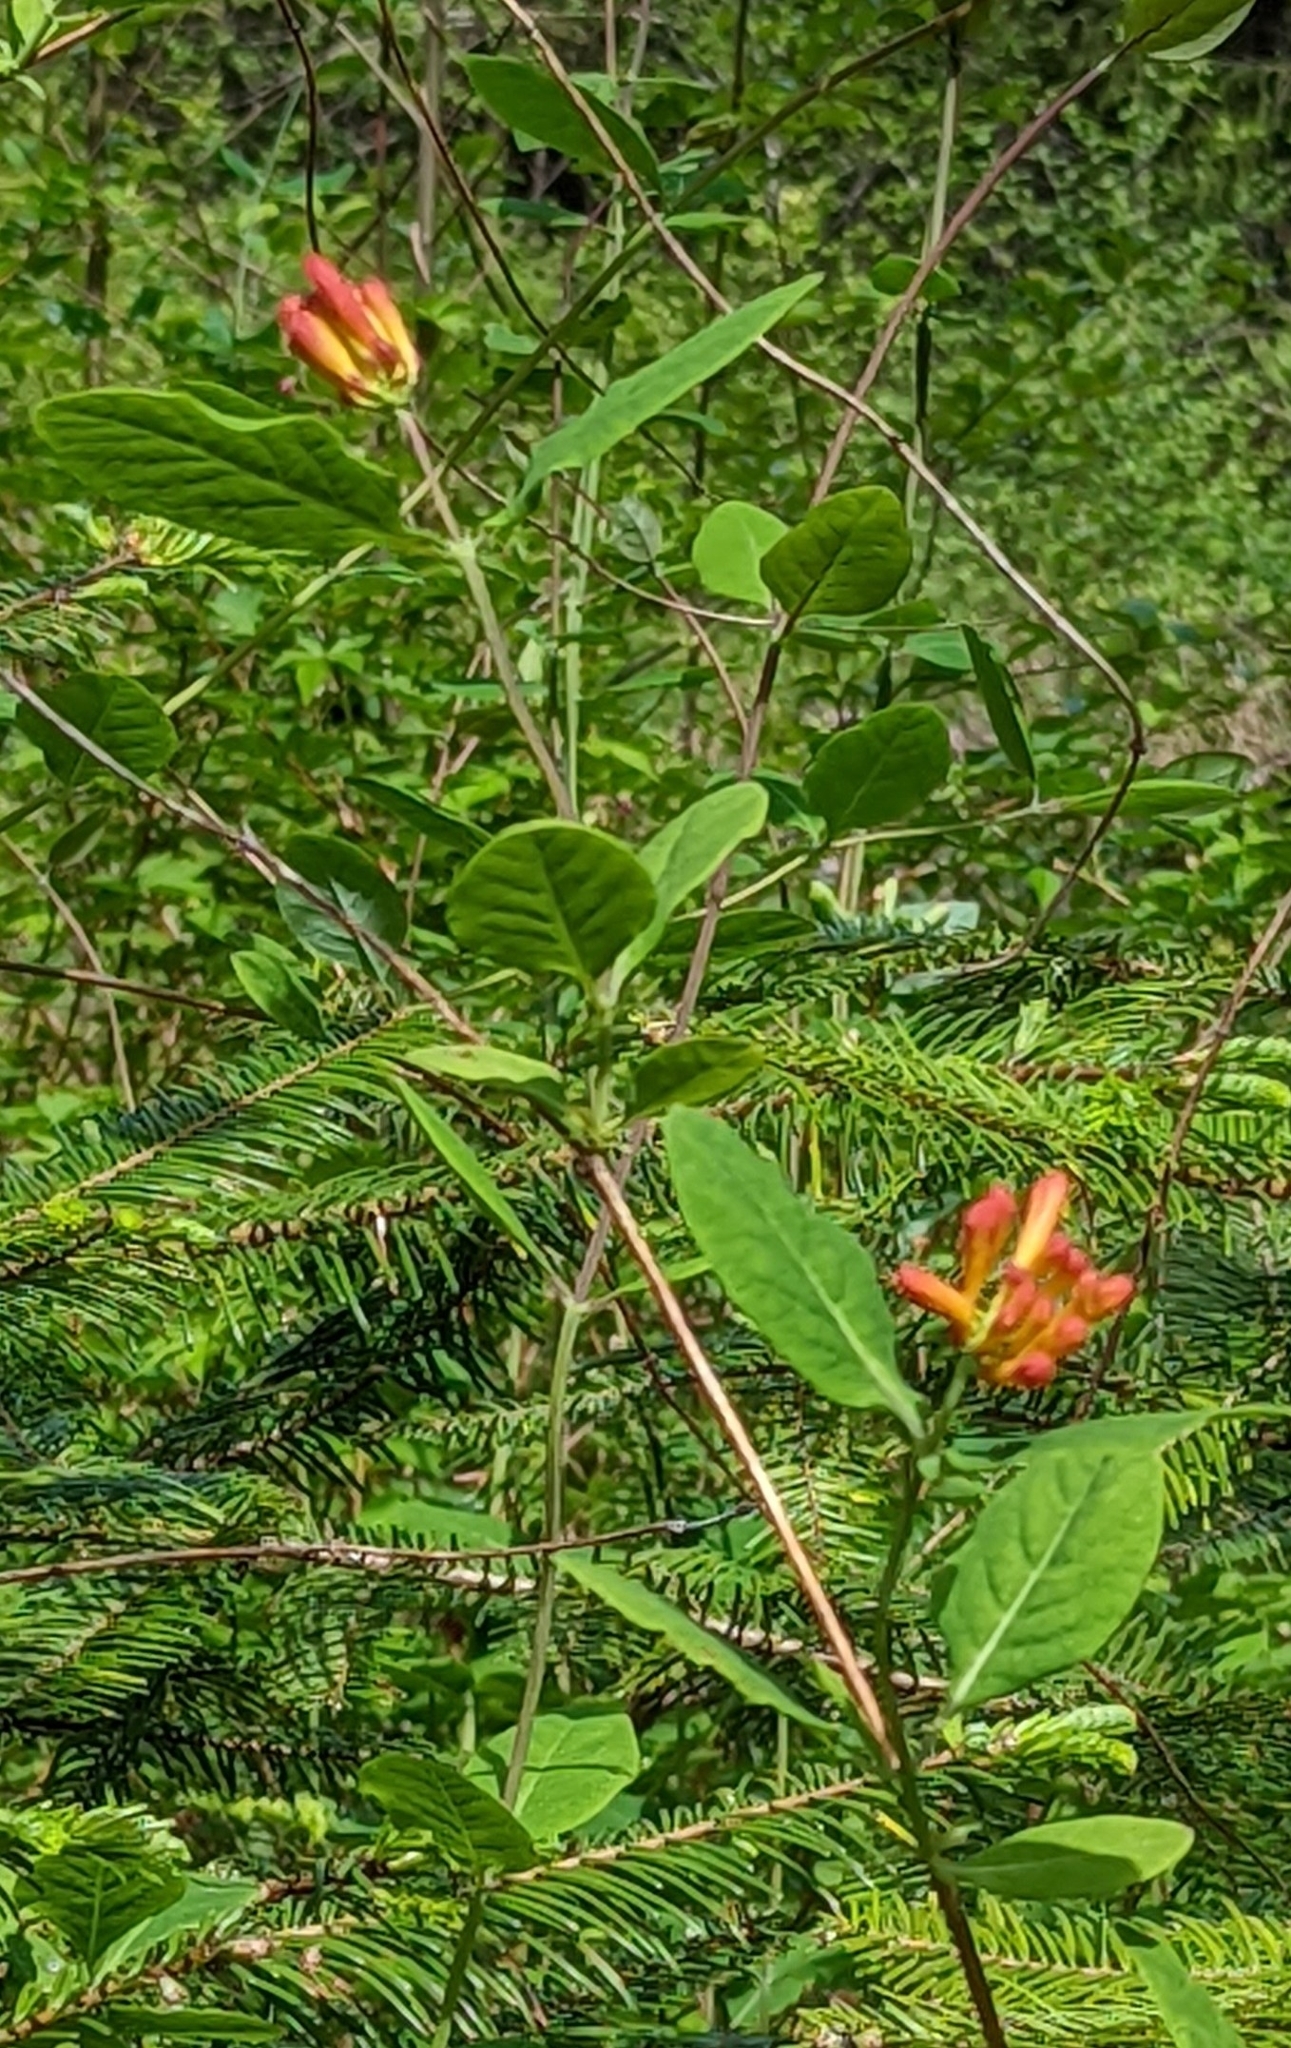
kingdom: Plantae
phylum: Tracheophyta
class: Magnoliopsida
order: Dipsacales
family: Caprifoliaceae
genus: Lonicera
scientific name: Lonicera ciliosa
